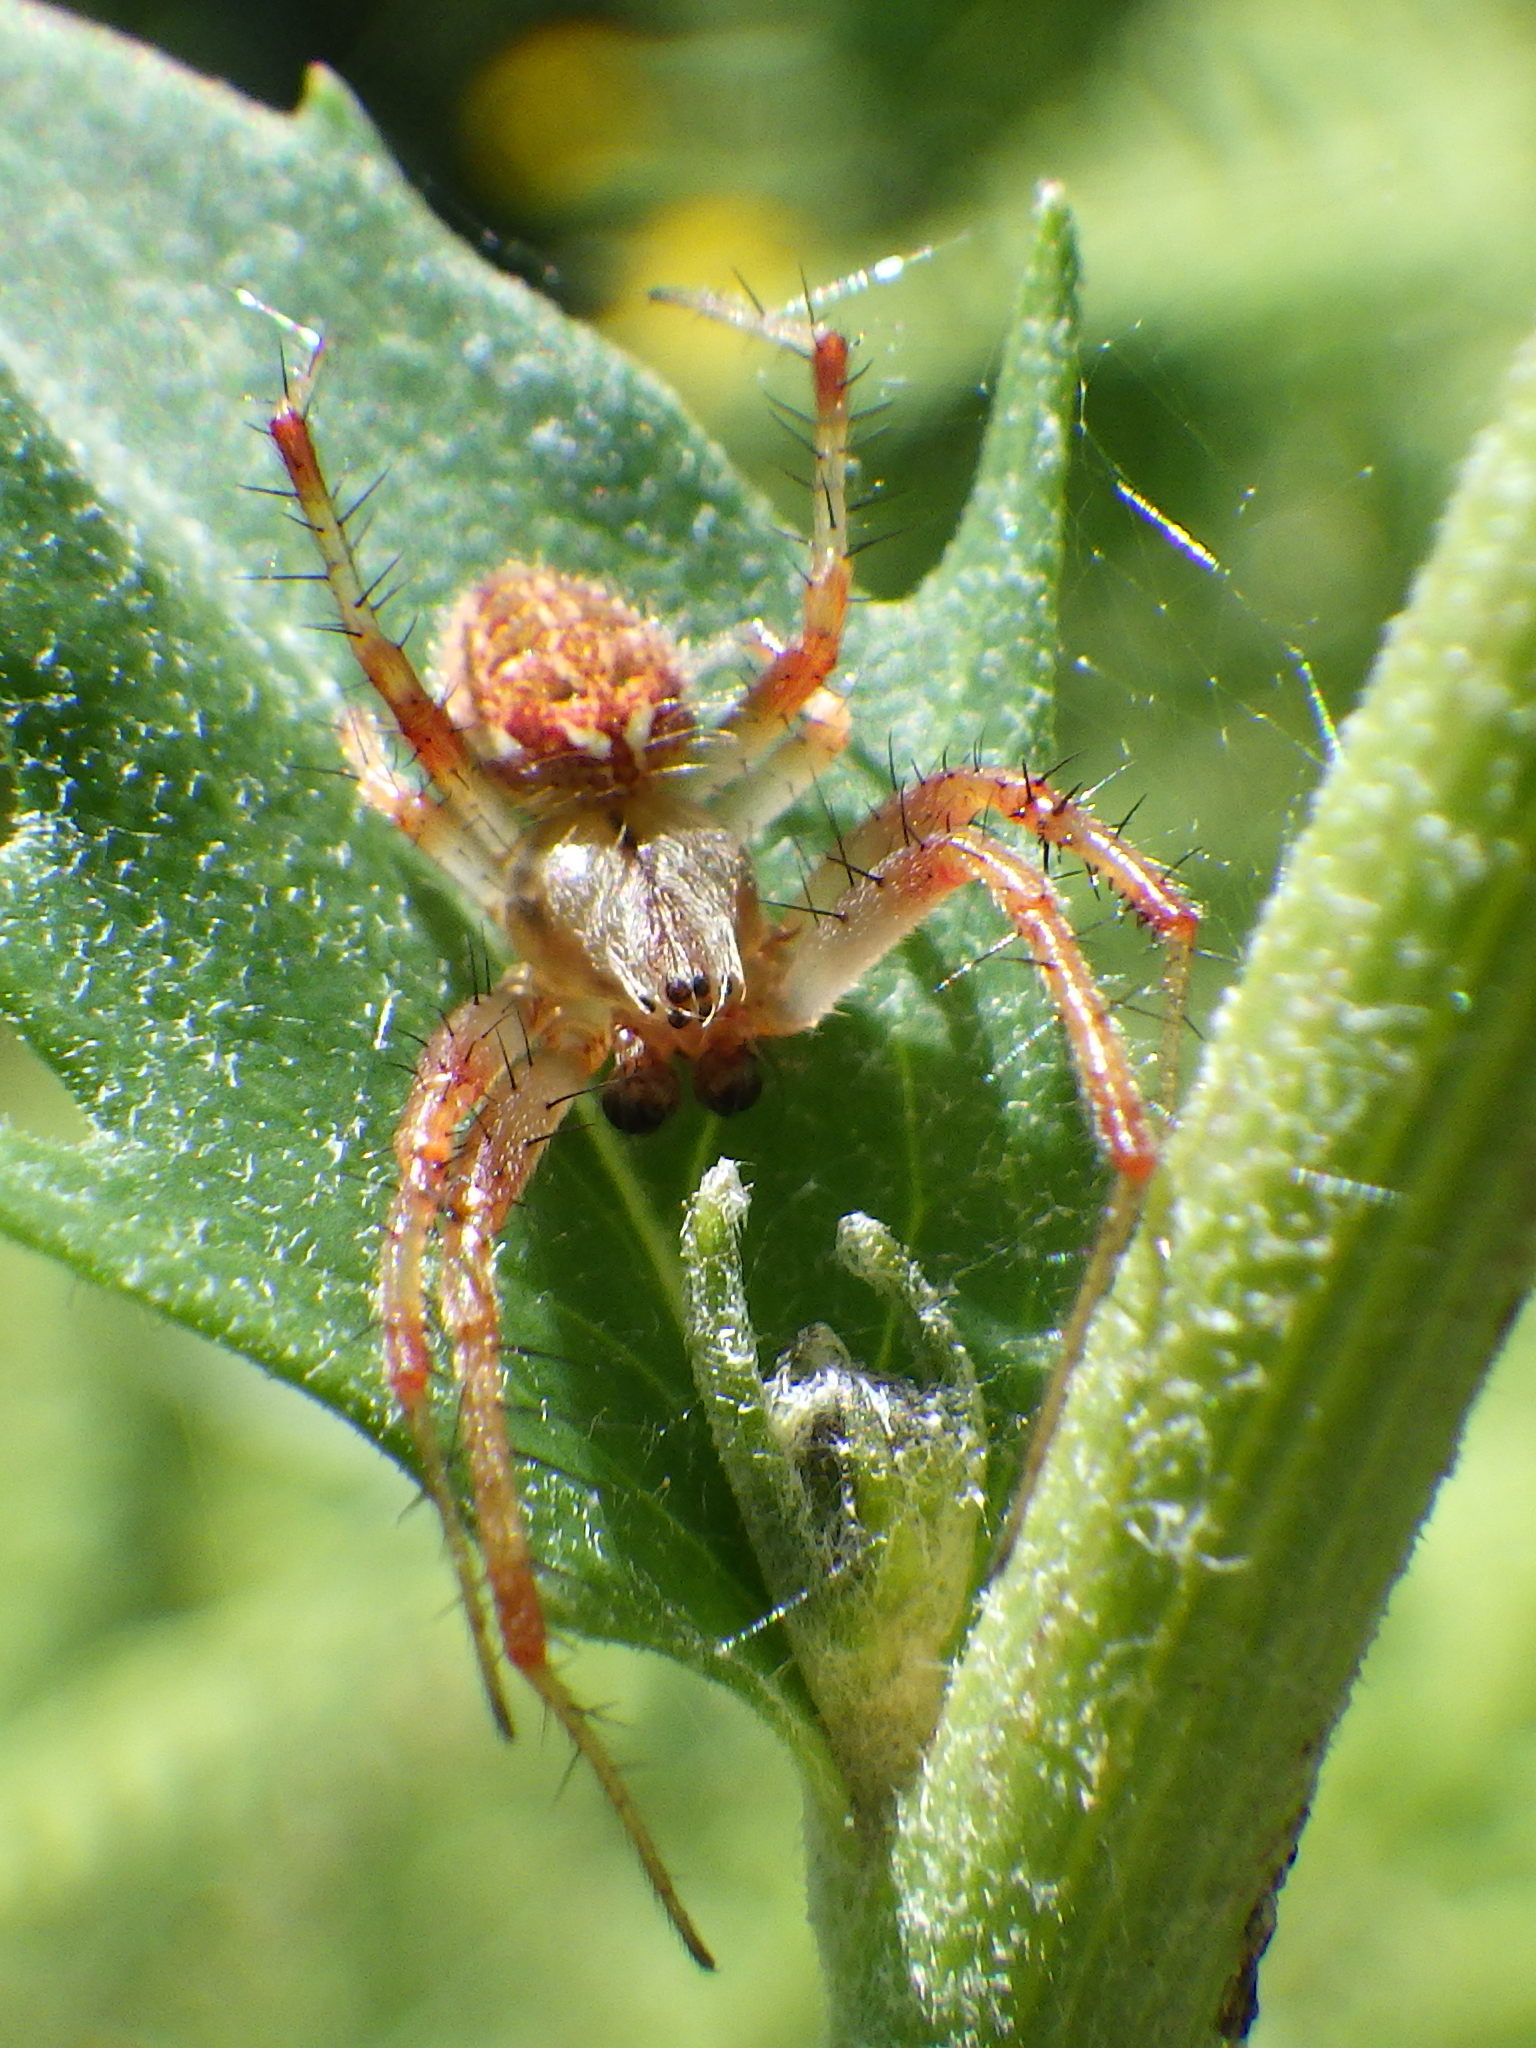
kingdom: Animalia
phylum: Arthropoda
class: Arachnida
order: Araneae
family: Araneidae
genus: Neoscona
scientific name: Neoscona arabesca
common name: Orb weavers
